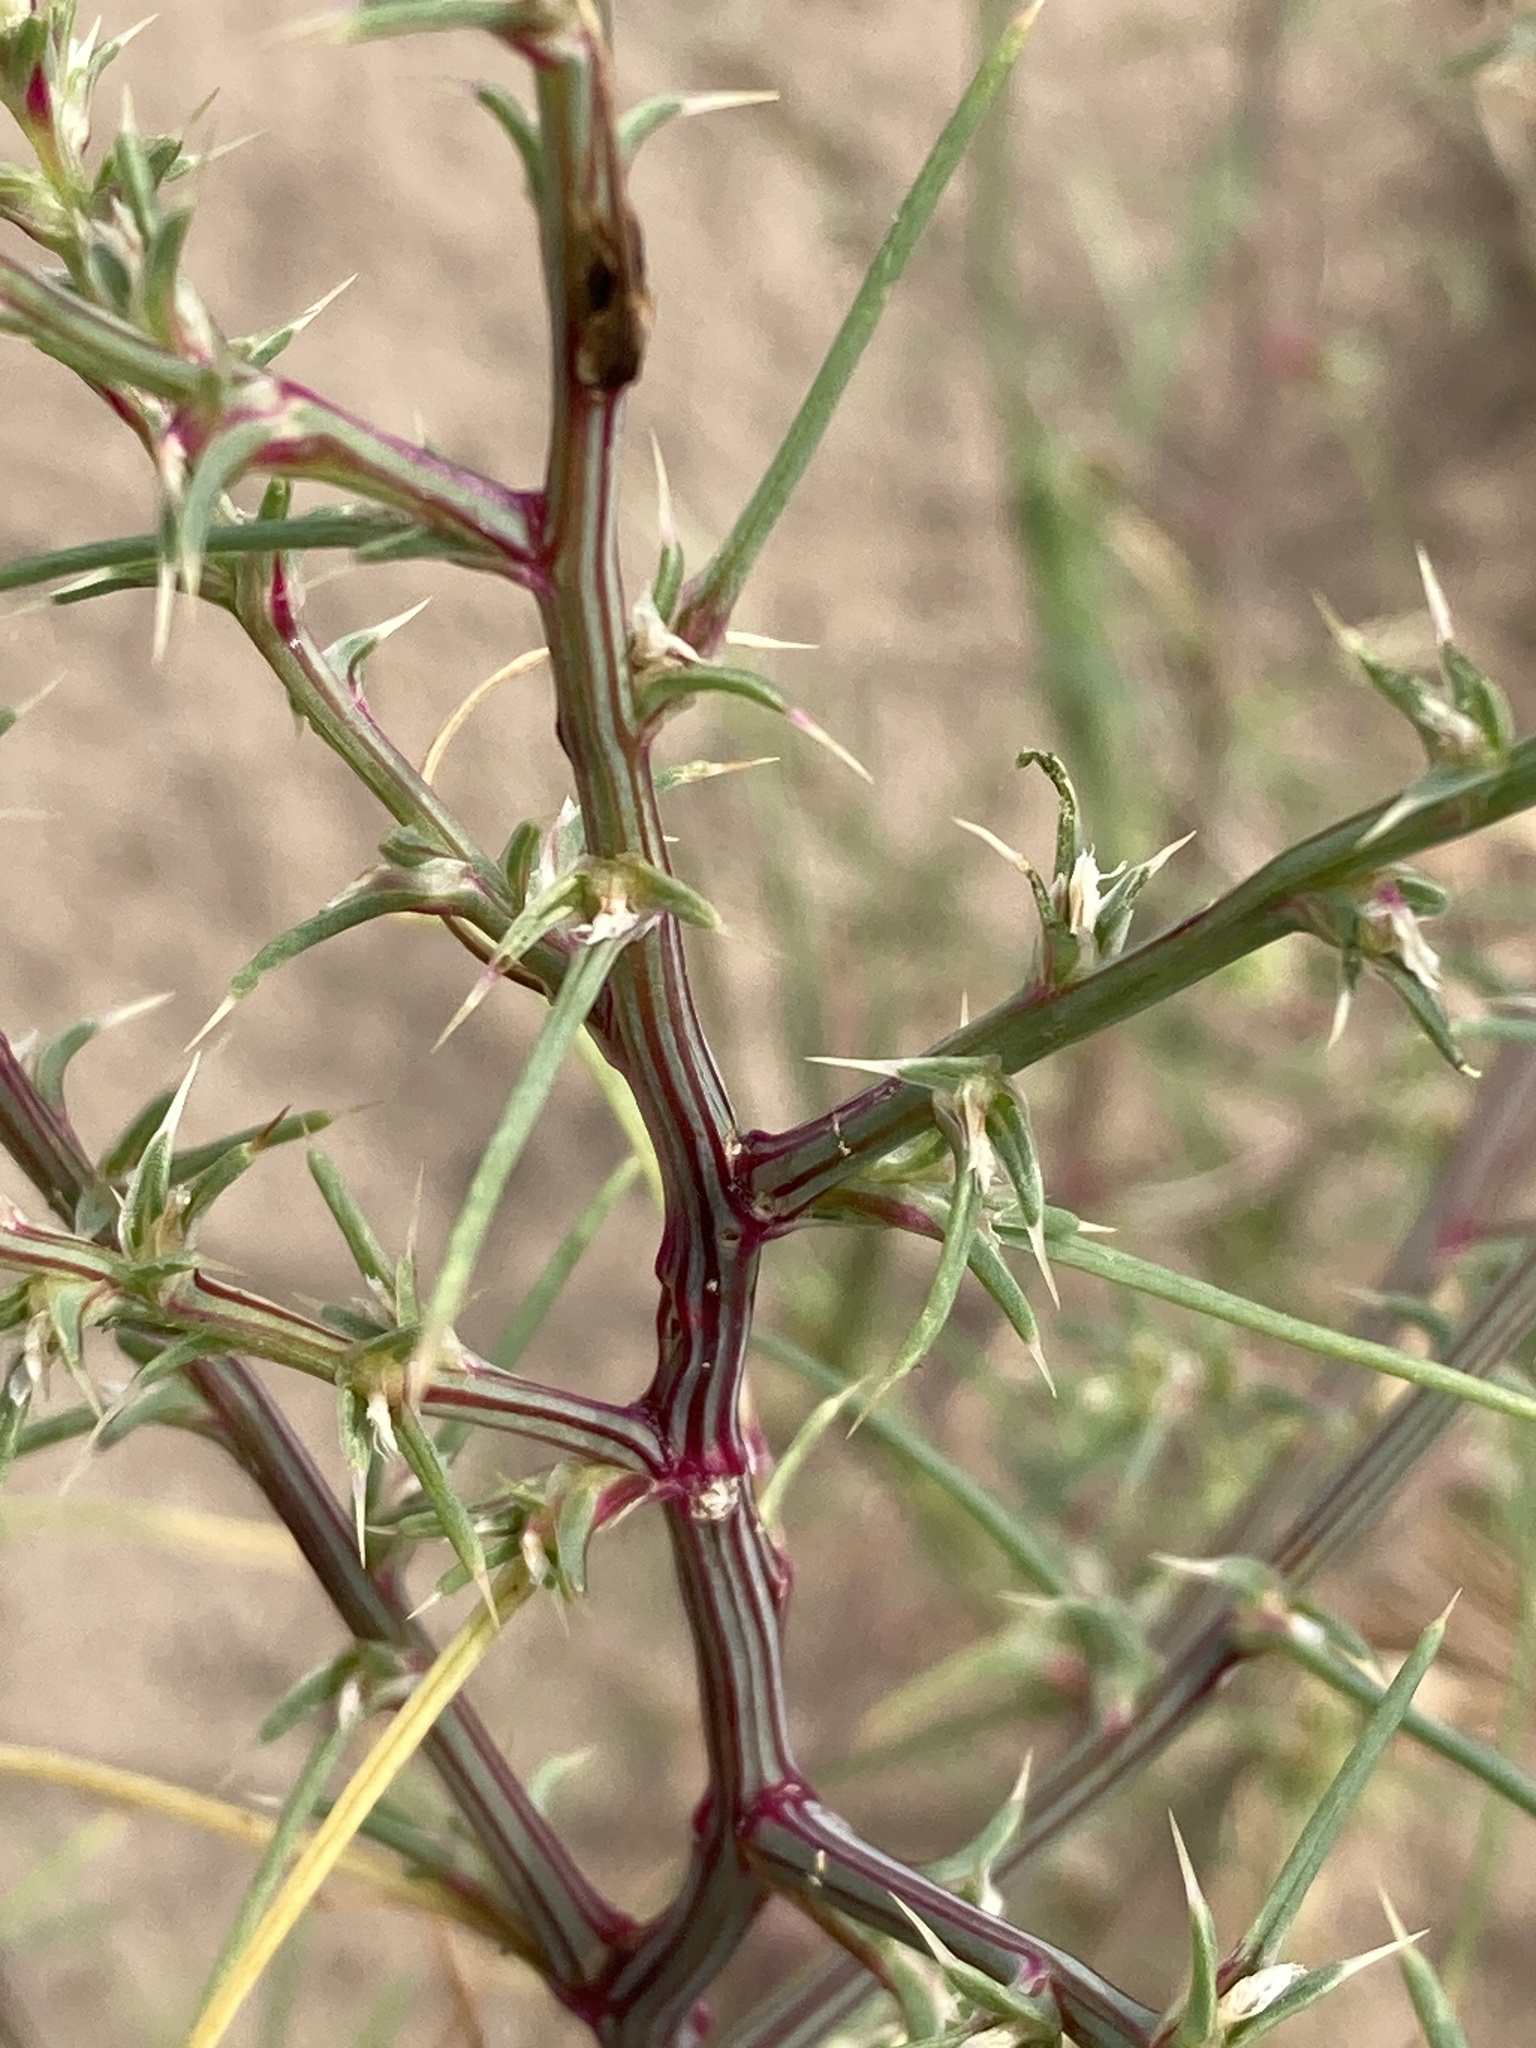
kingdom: Plantae
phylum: Tracheophyta
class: Magnoliopsida
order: Caryophyllales
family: Amaranthaceae
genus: Salsola
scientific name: Salsola tragus
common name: Prickly russian thistle
